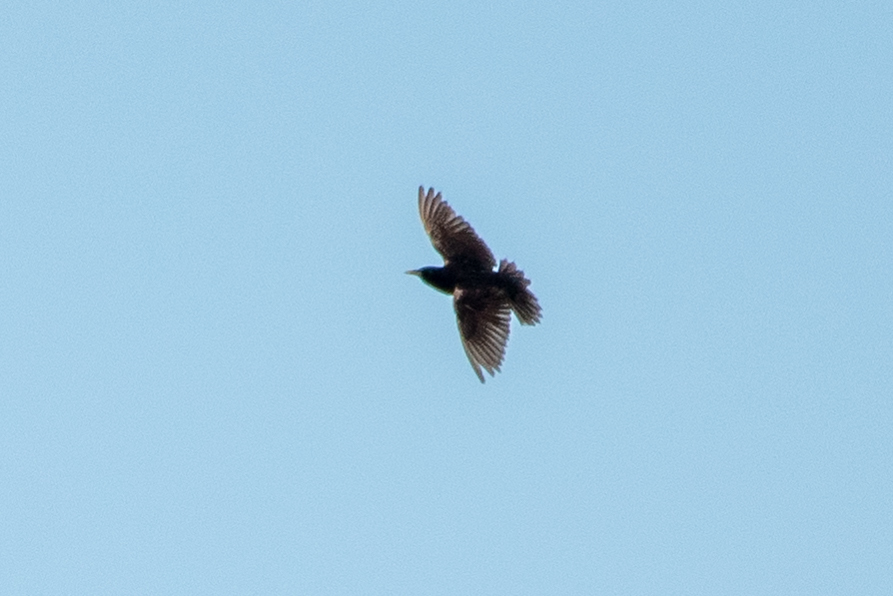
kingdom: Animalia
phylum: Chordata
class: Aves
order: Passeriformes
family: Sturnidae
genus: Sturnus
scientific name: Sturnus vulgaris
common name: Common starling
